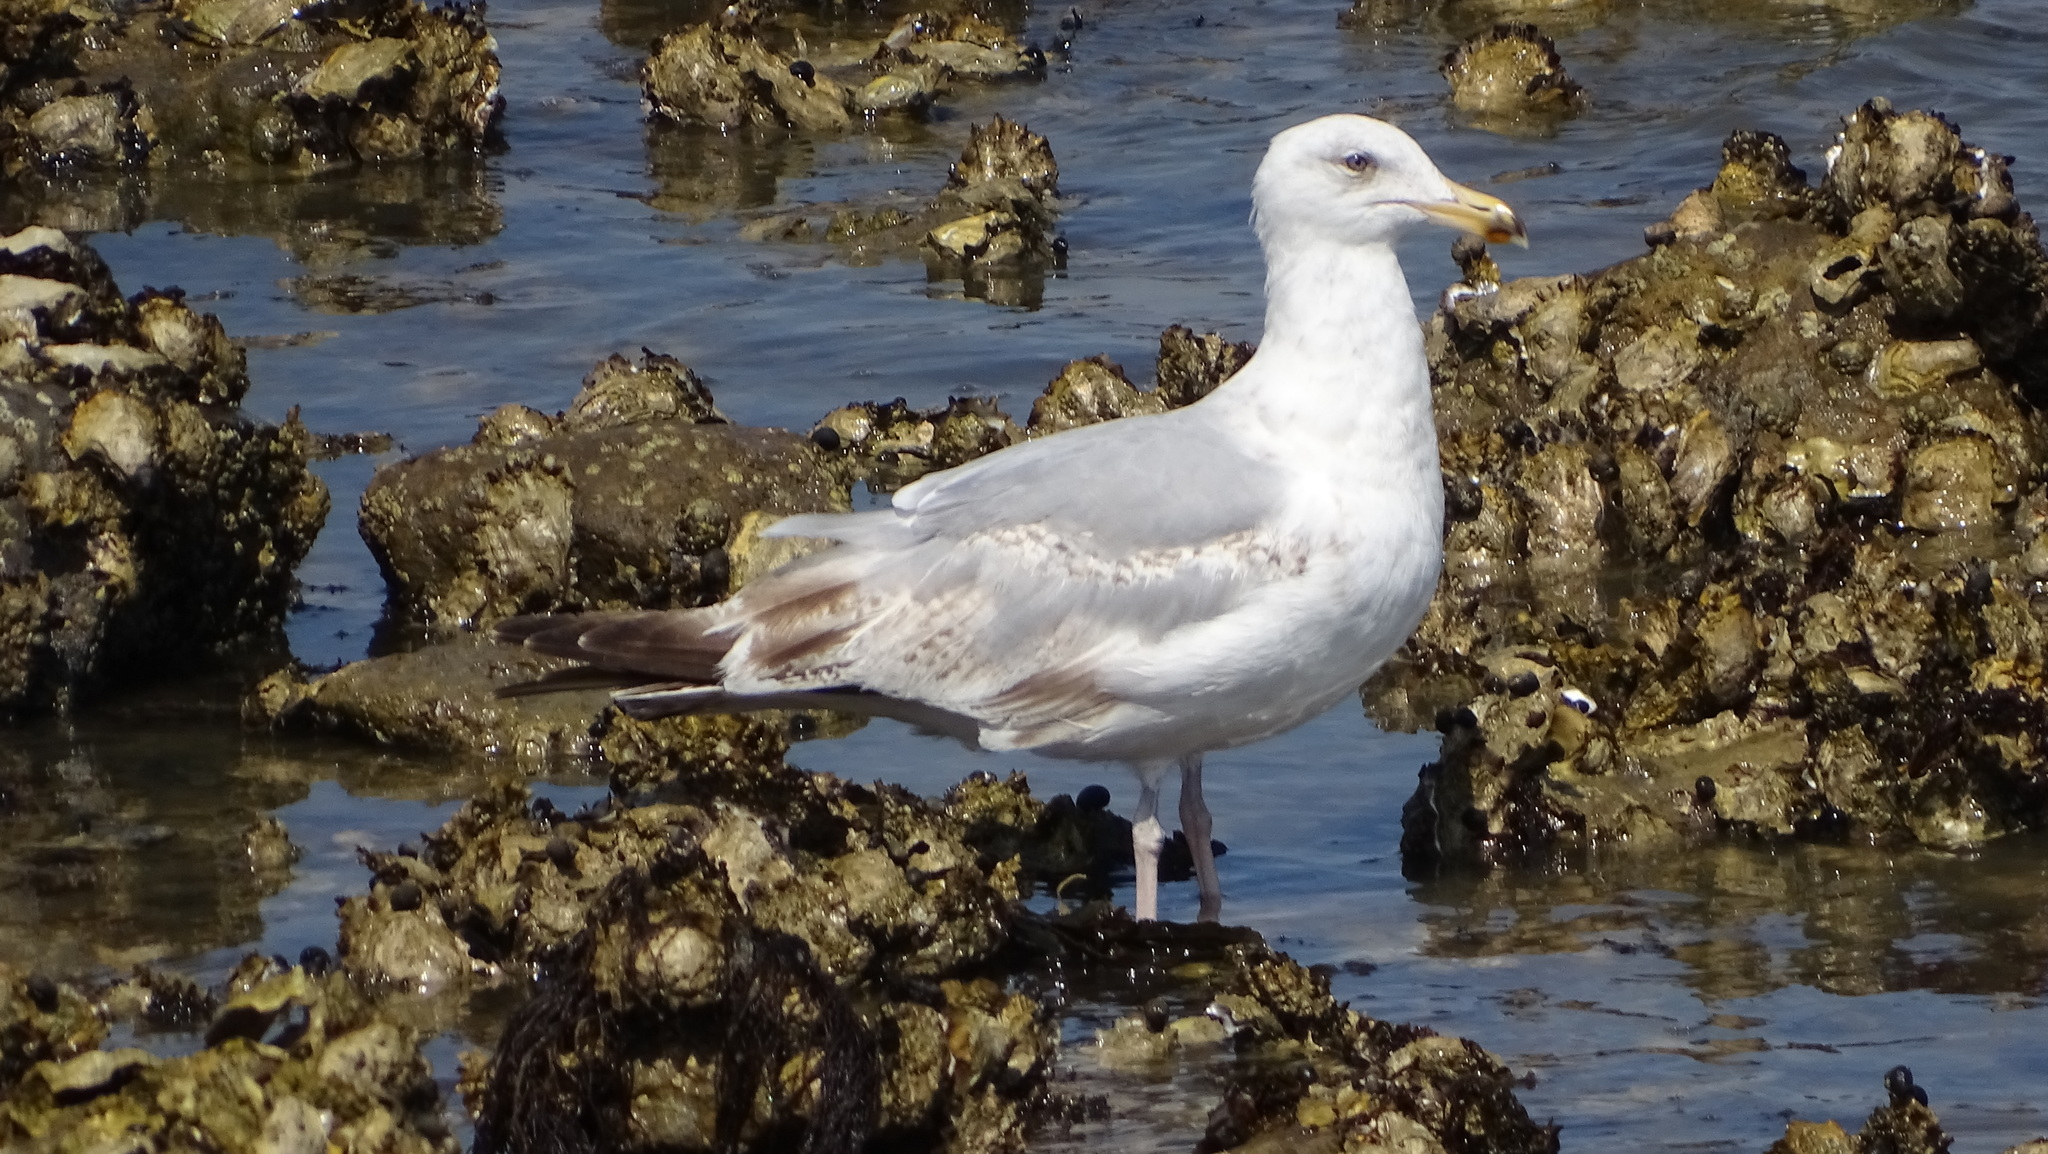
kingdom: Animalia
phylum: Chordata
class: Aves
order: Charadriiformes
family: Laridae
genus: Larus
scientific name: Larus argentatus
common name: Herring gull
